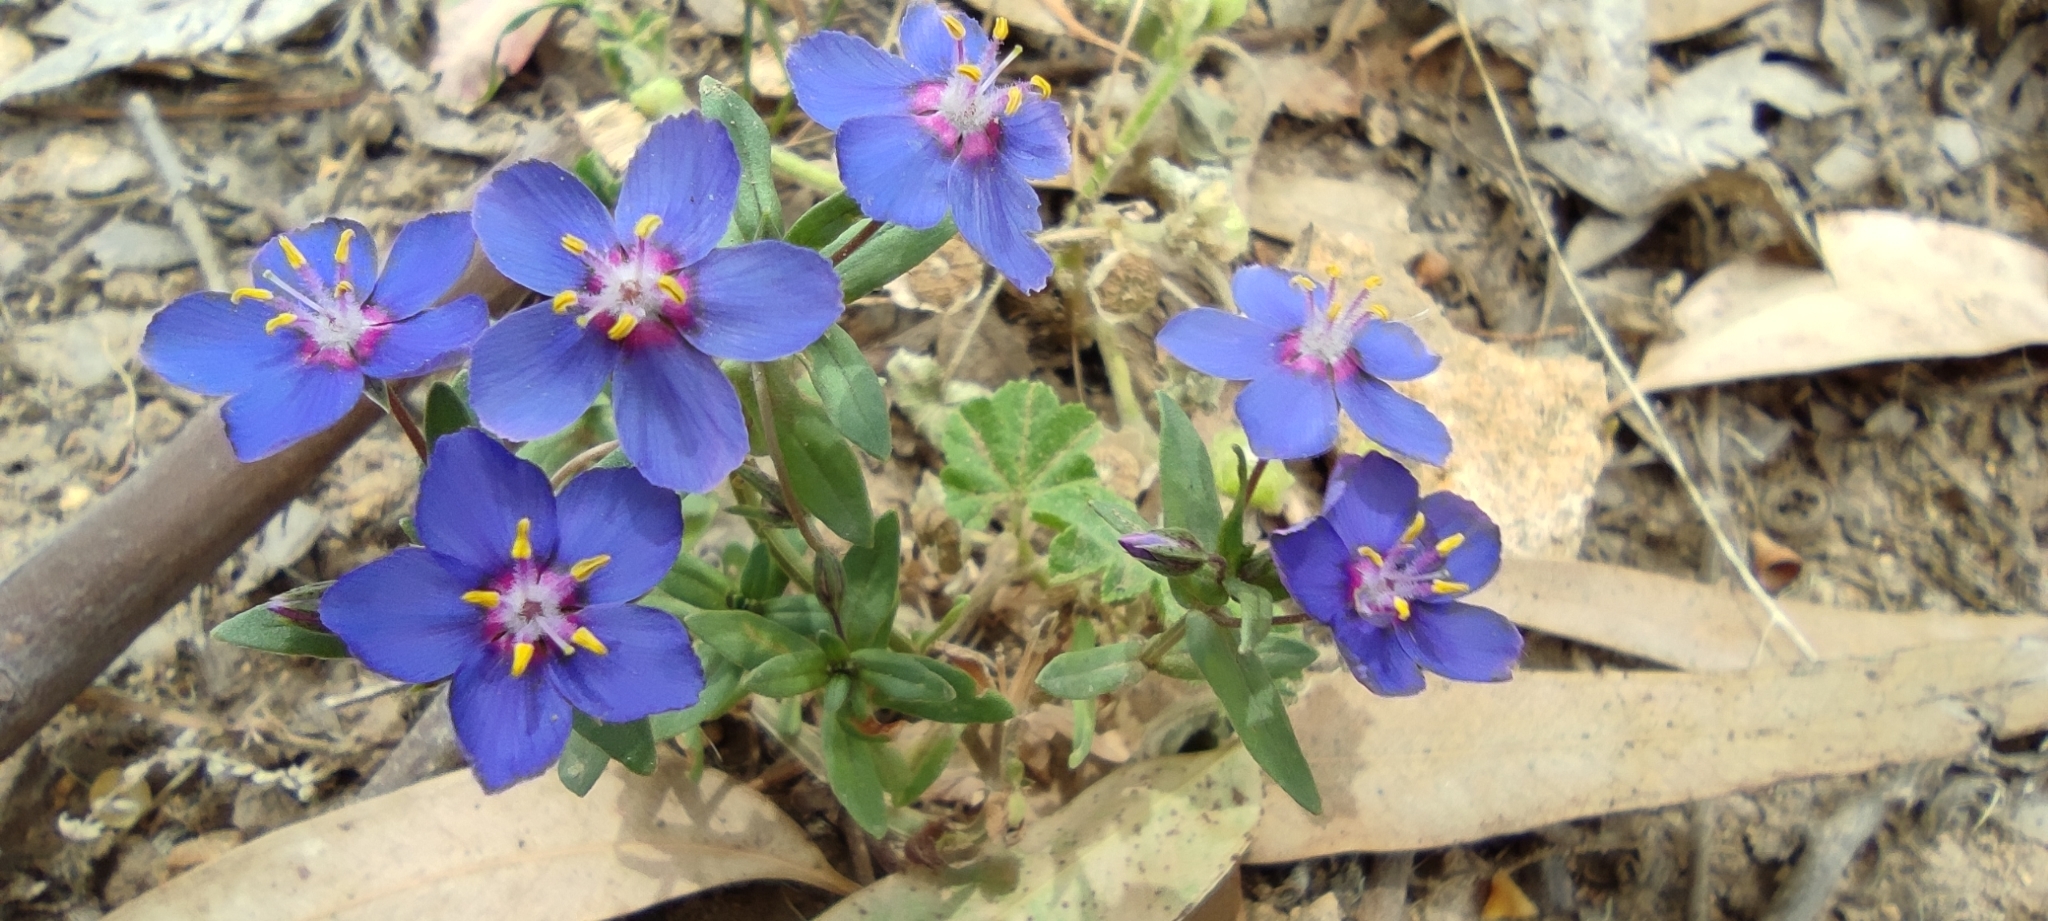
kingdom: Plantae
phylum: Tracheophyta
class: Magnoliopsida
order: Ericales
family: Primulaceae
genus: Lysimachia
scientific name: Lysimachia monelli
